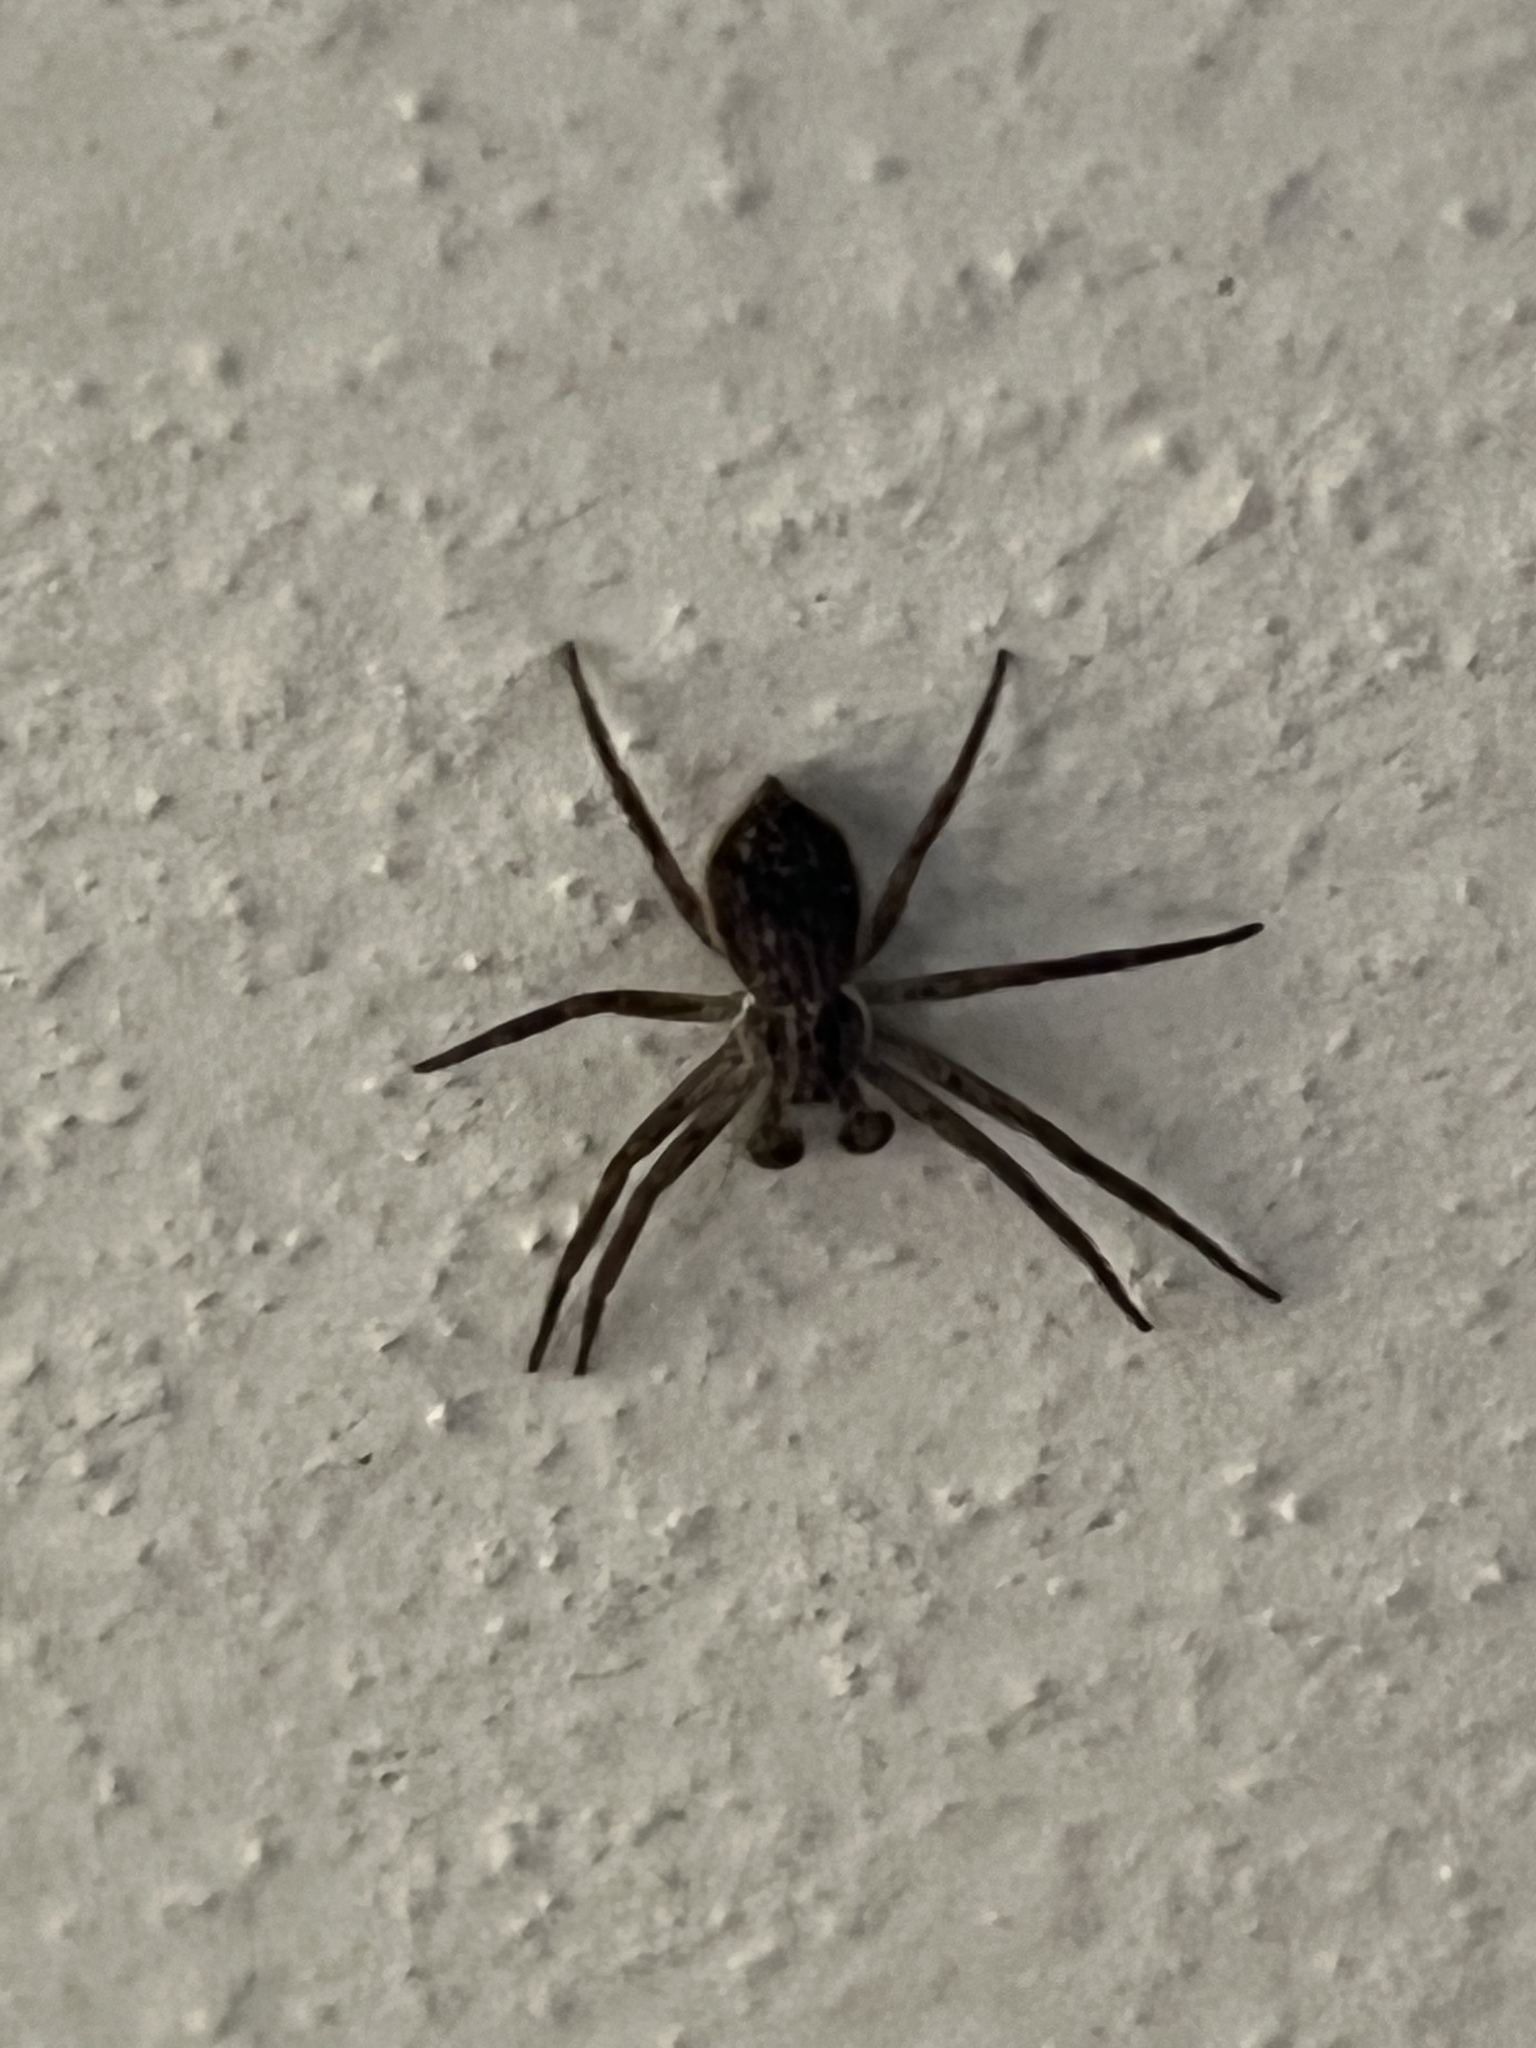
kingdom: Animalia
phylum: Arthropoda
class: Arachnida
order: Araneae
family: Philodromidae
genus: Philodromus
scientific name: Philodromus dispar
